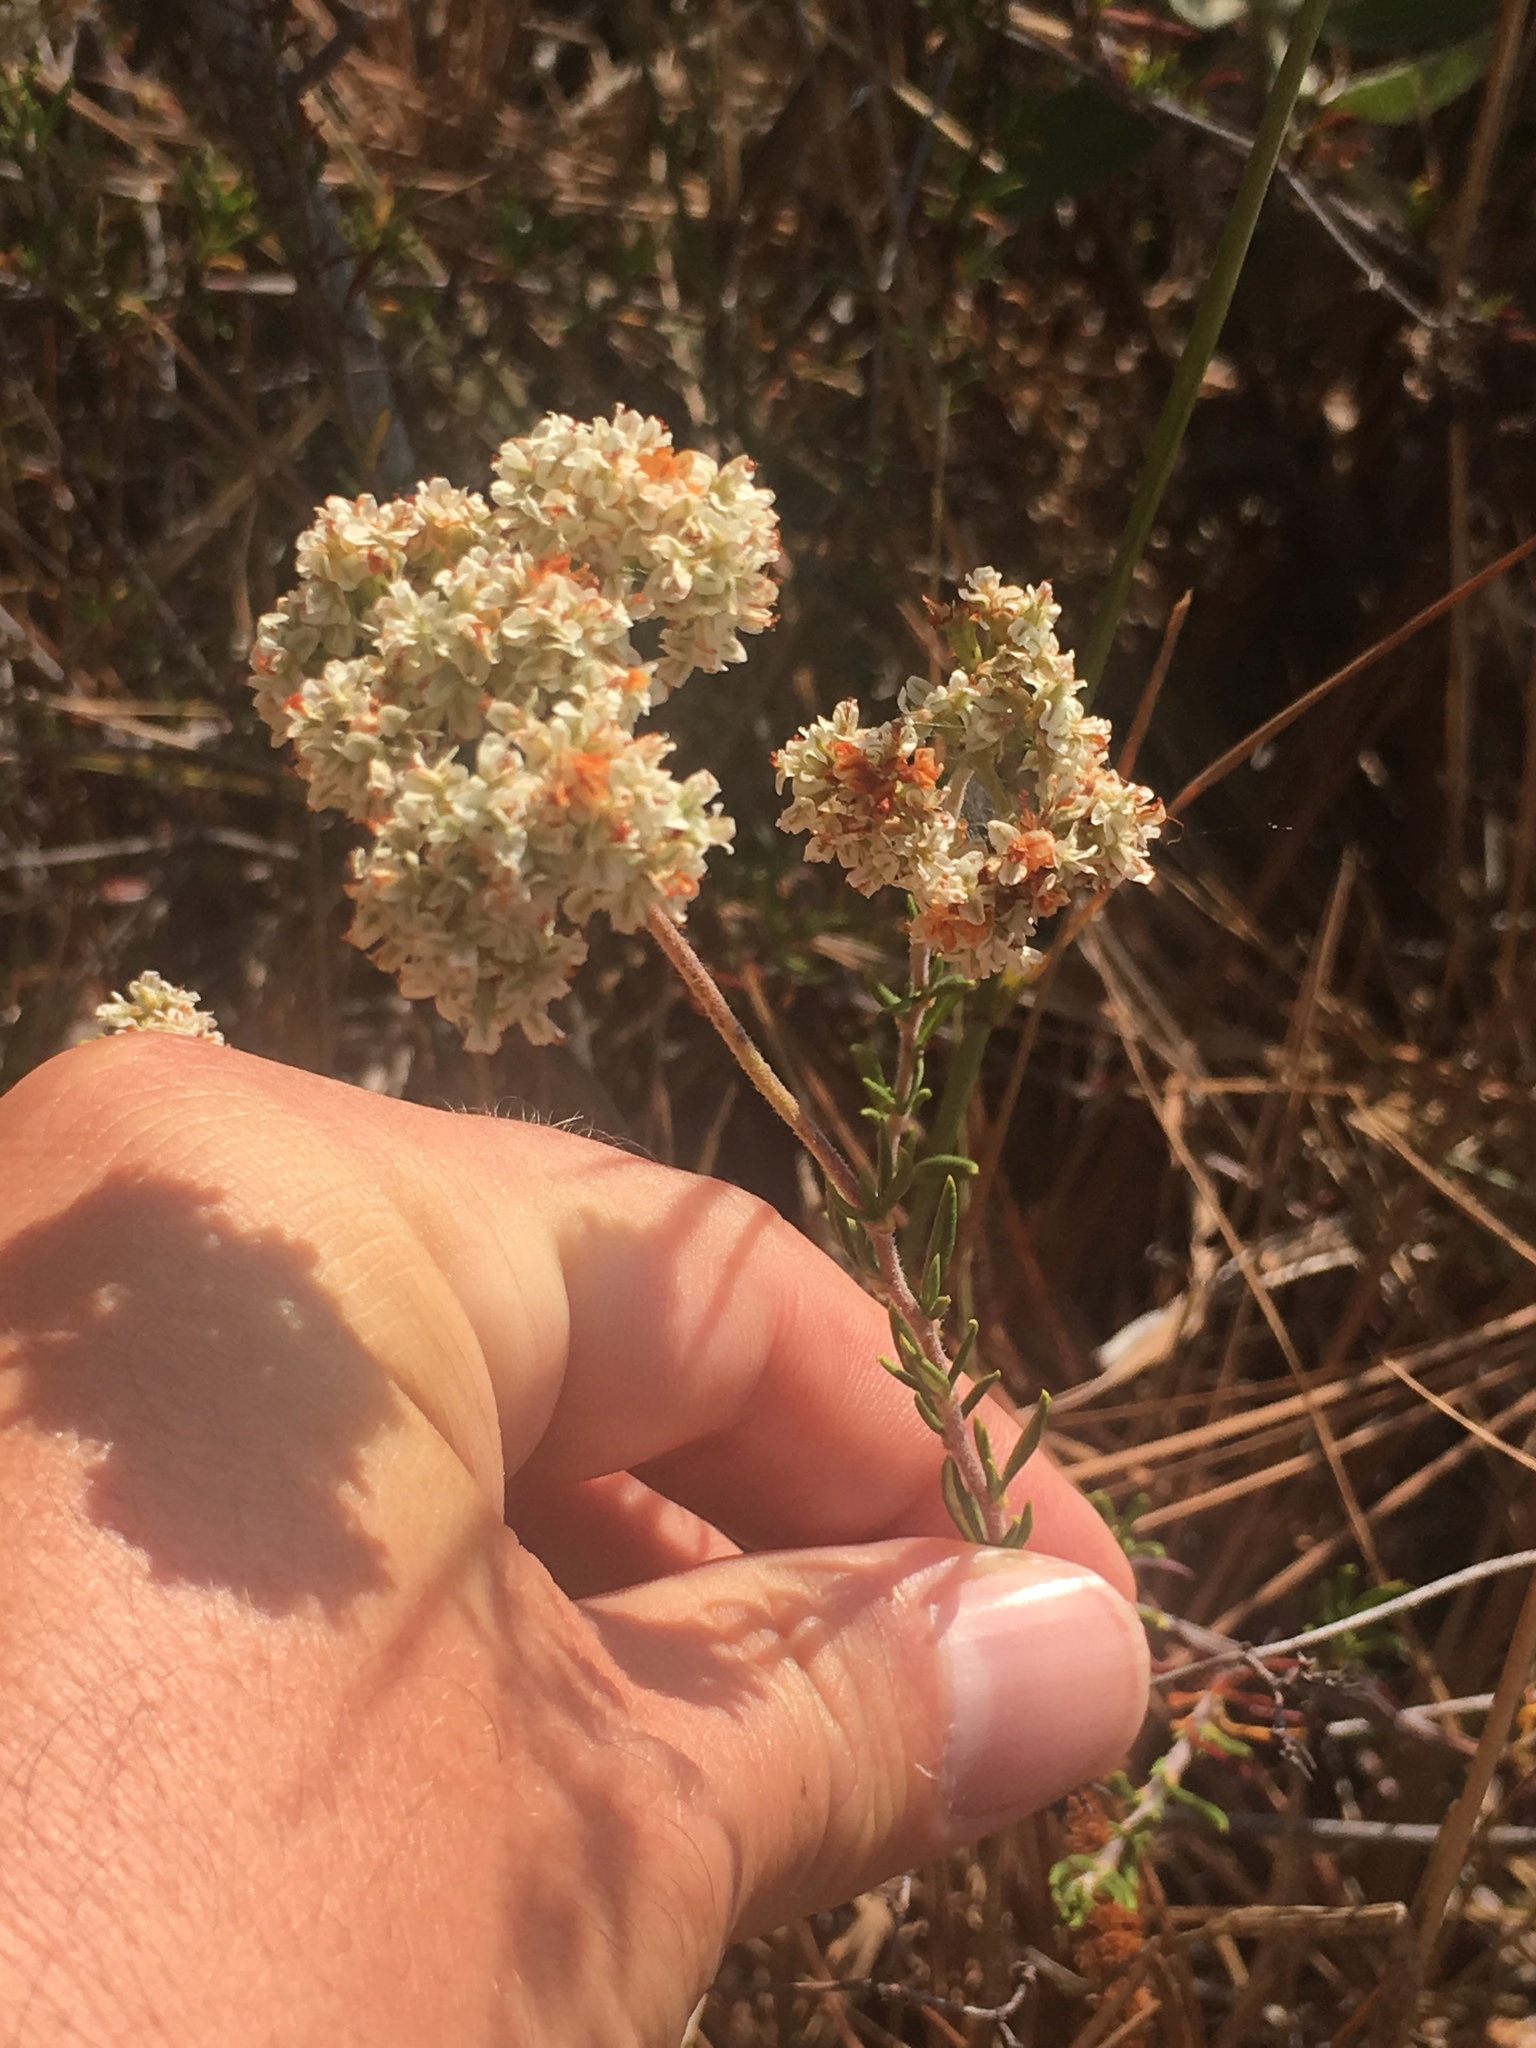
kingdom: Plantae
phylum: Tracheophyta
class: Magnoliopsida
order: Caryophyllales
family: Polygonaceae
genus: Eriogonum
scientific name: Eriogonum fasciculatum
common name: California wild buckwheat
